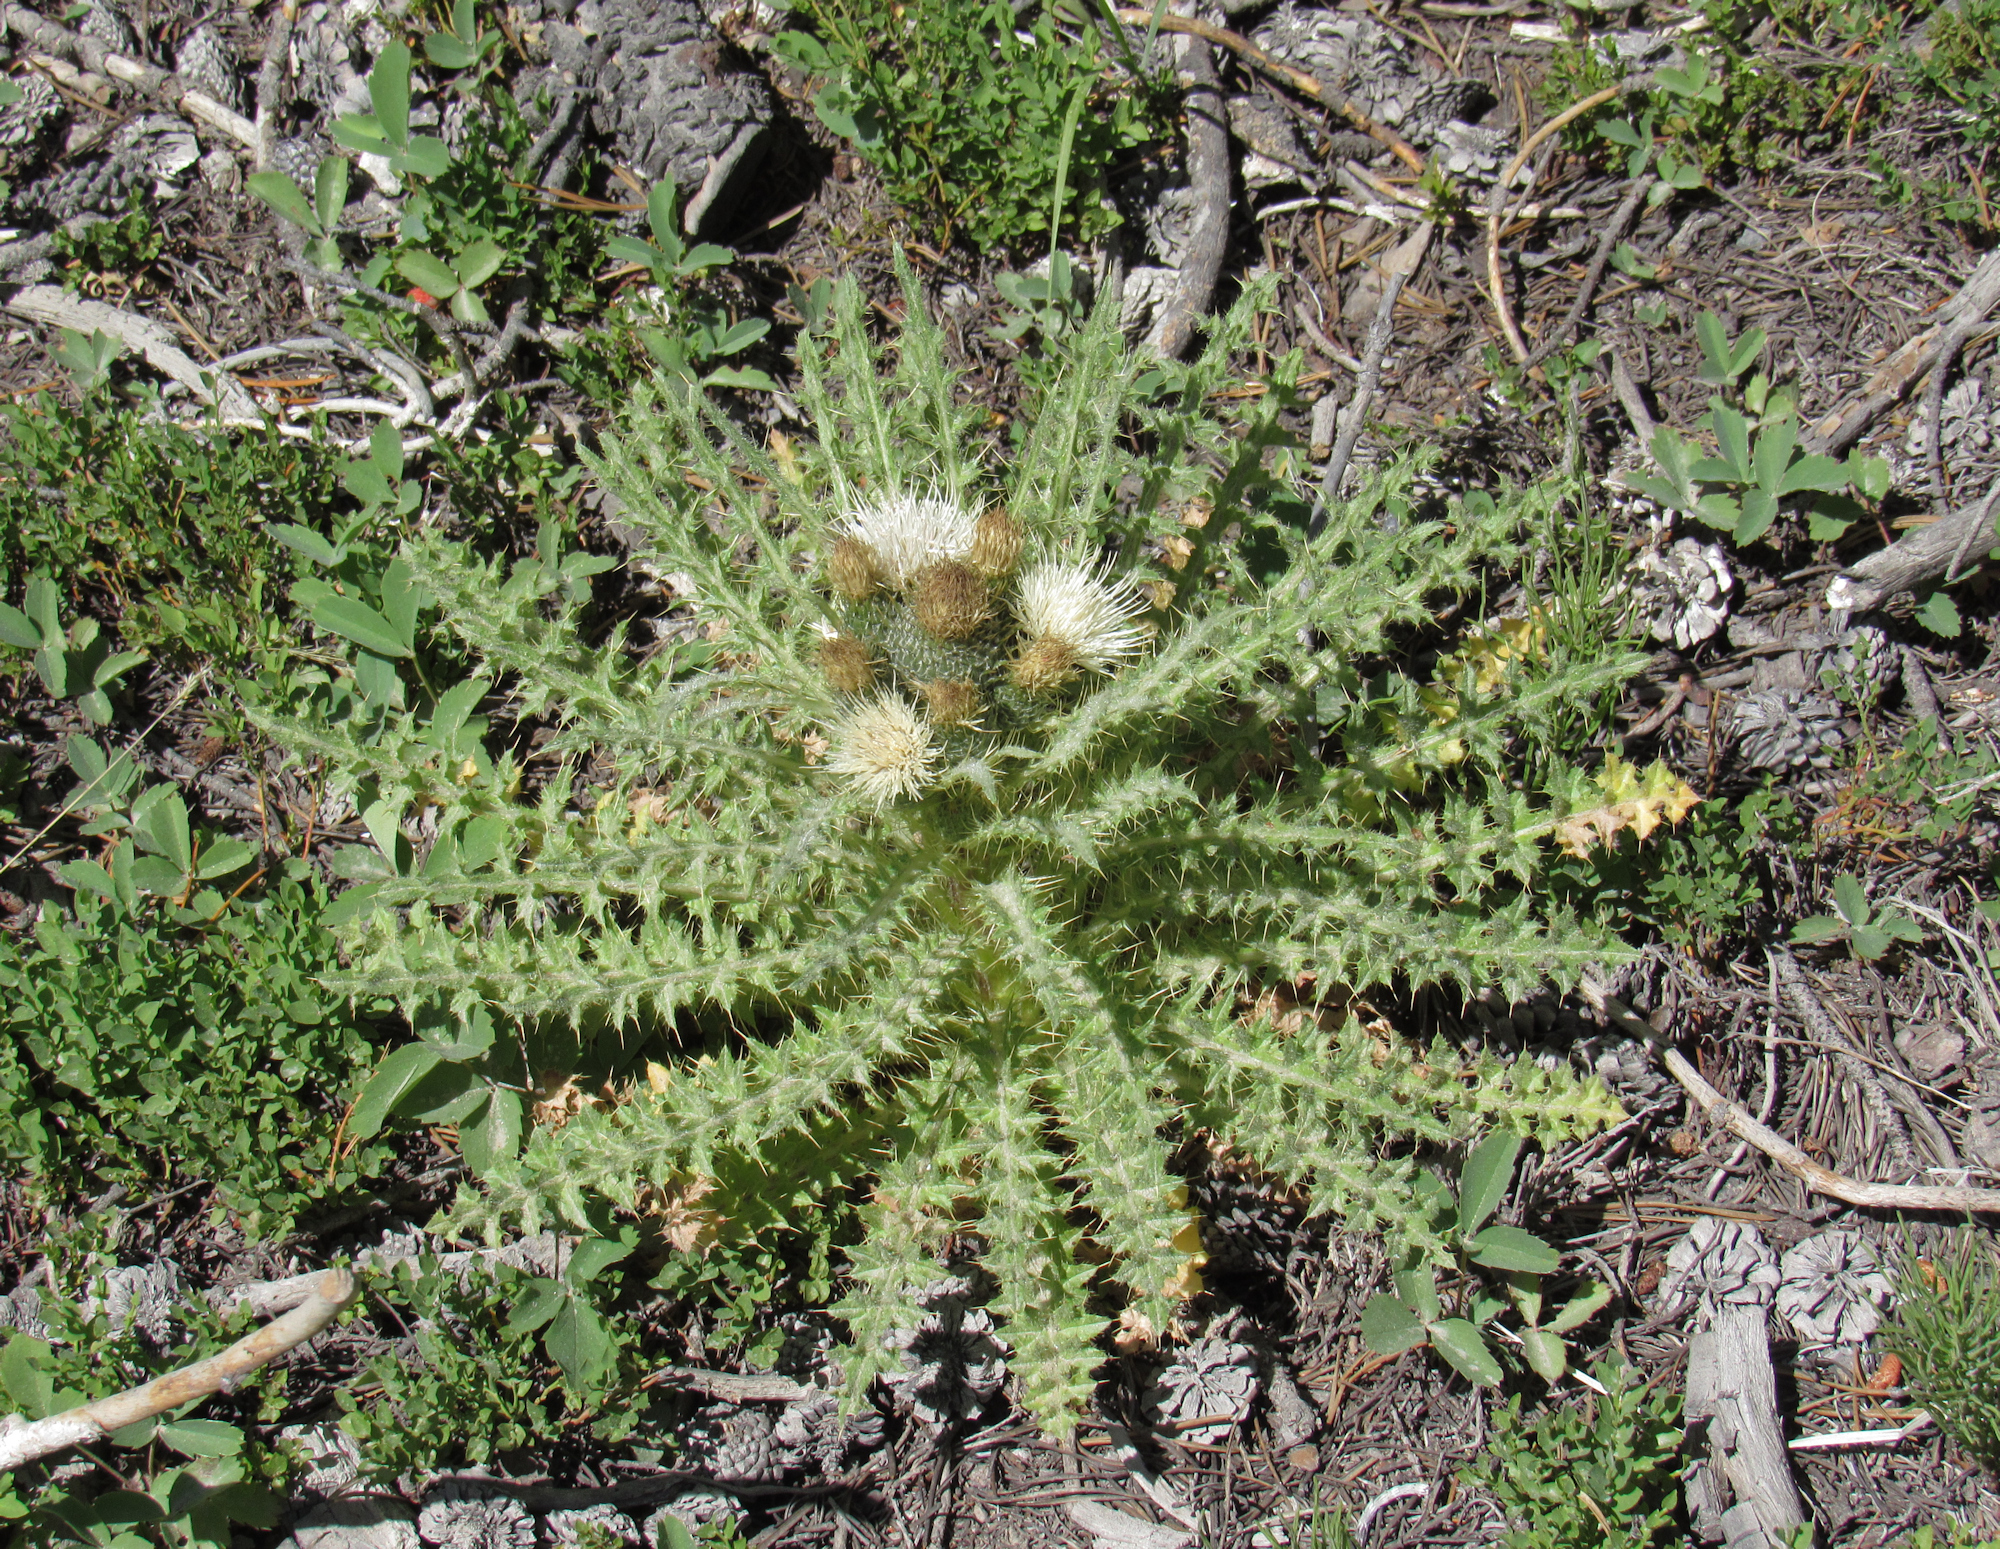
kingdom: Plantae
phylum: Tracheophyta
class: Magnoliopsida
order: Asterales
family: Asteraceae
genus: Cirsium
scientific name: Cirsium scariosum
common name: Meadow thistle
